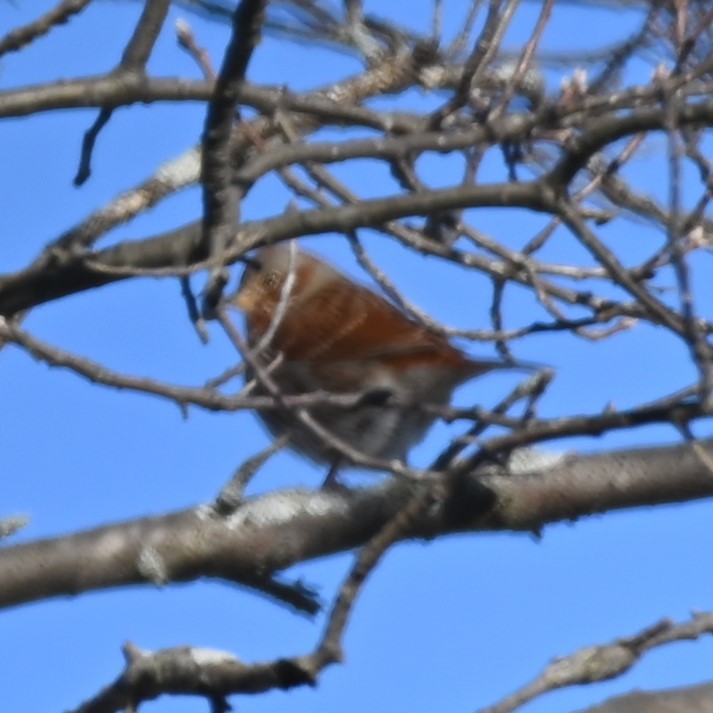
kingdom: Animalia
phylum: Chordata
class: Aves
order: Passeriformes
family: Passerellidae
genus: Passerella
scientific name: Passerella iliaca
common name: Fox sparrow
